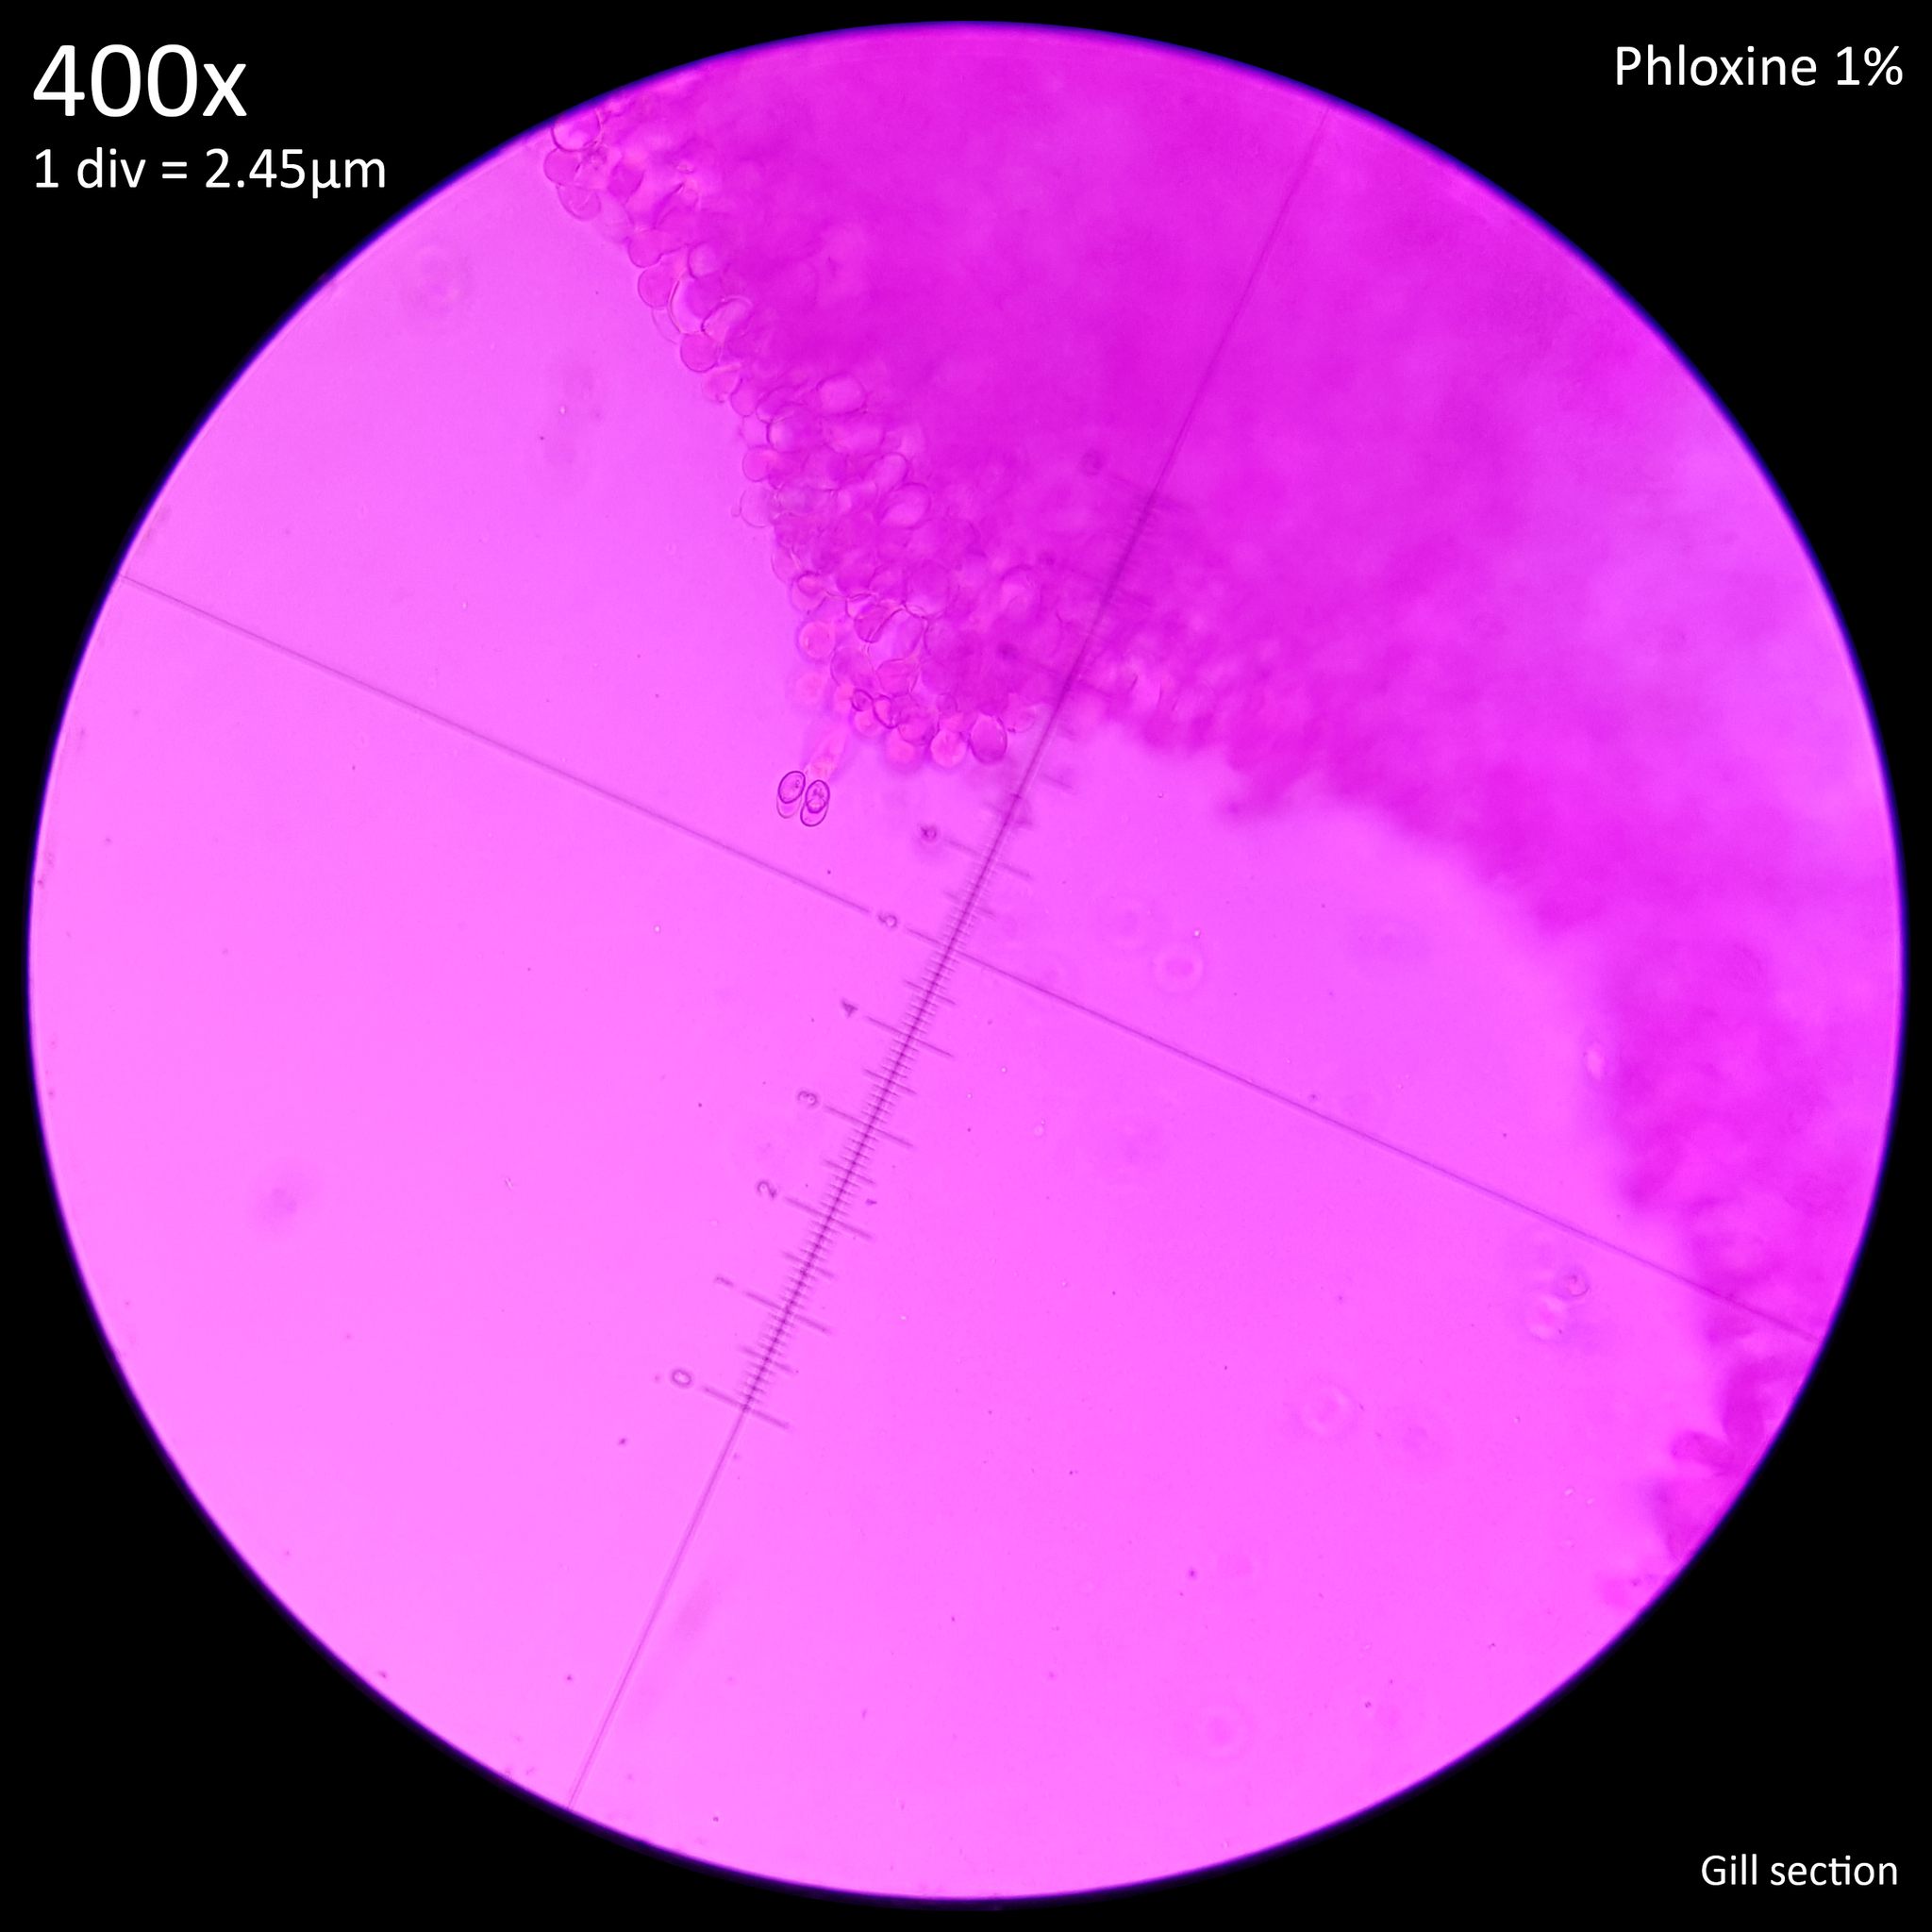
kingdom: Fungi
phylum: Basidiomycota
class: Agaricomycetes
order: Agaricales
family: Agaricaceae
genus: Leucocoprinus
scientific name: Leucocoprinus brebissonii
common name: Skullcap dapperling
